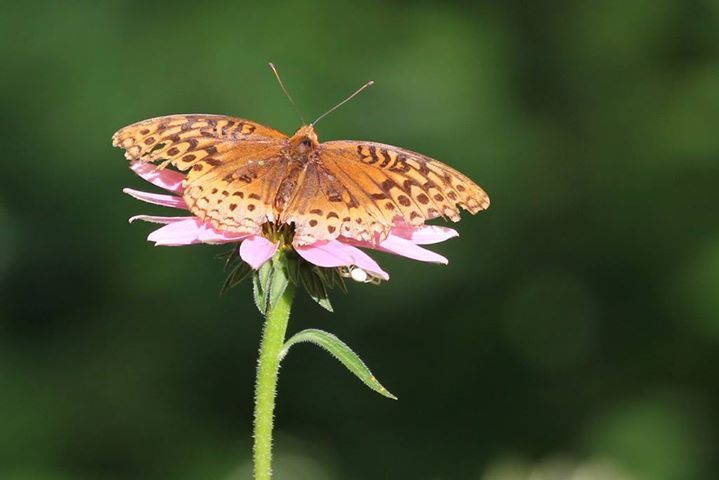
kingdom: Animalia
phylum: Arthropoda
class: Insecta
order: Lepidoptera
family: Nymphalidae
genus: Speyeria
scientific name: Speyeria cybele
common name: Great spangled fritillary
